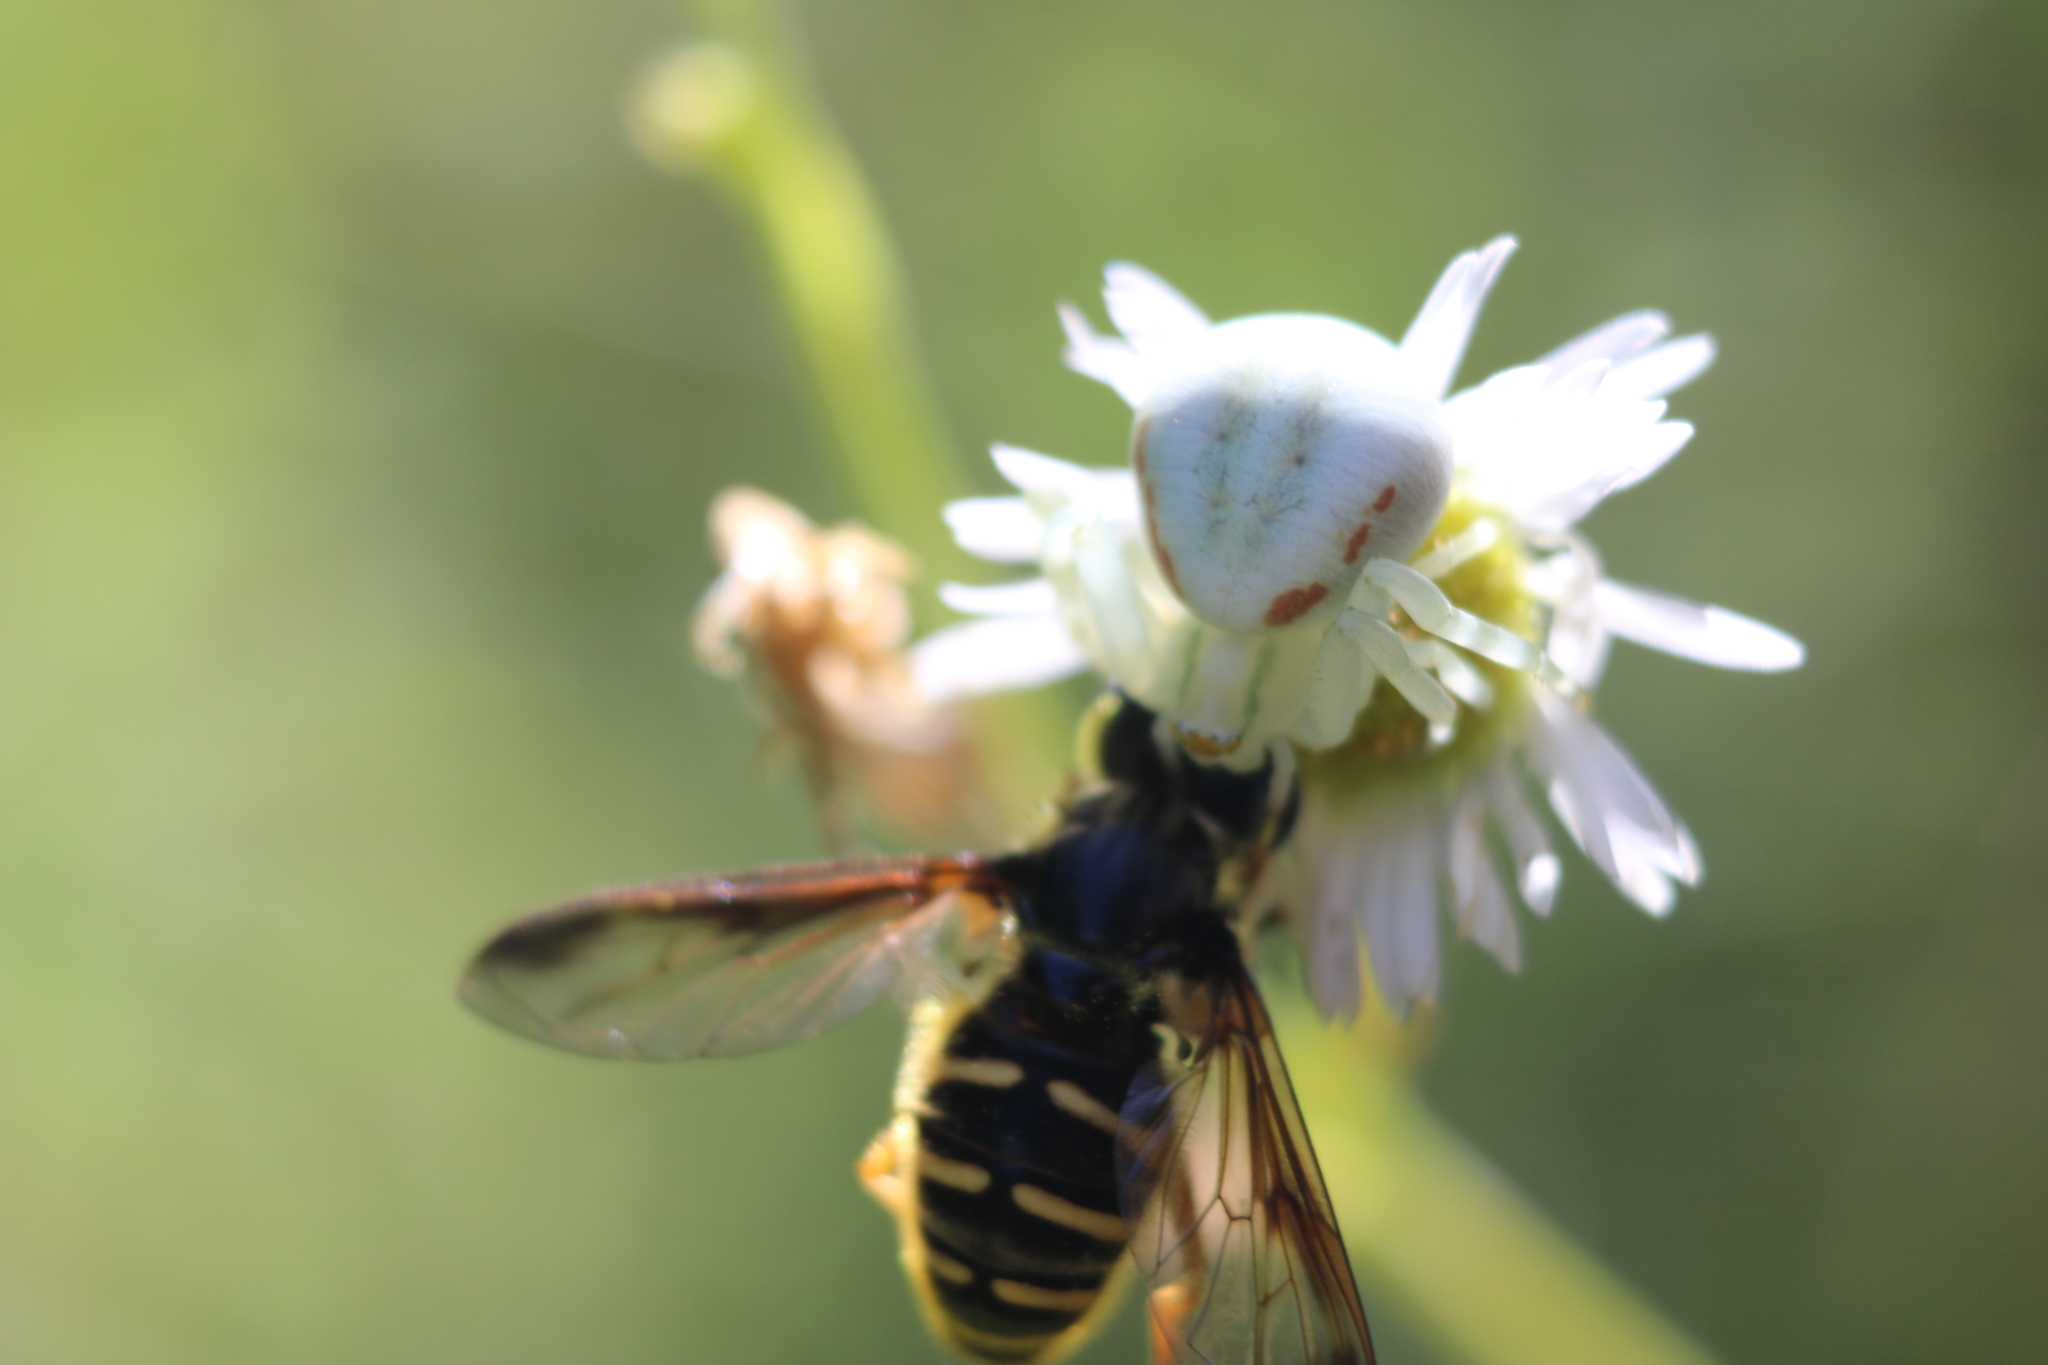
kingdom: Animalia
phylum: Arthropoda
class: Insecta
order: Diptera
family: Syrphidae
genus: Sericomyia
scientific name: Sericomyia chrysotoxoides
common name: Oblique-banded pond fly
